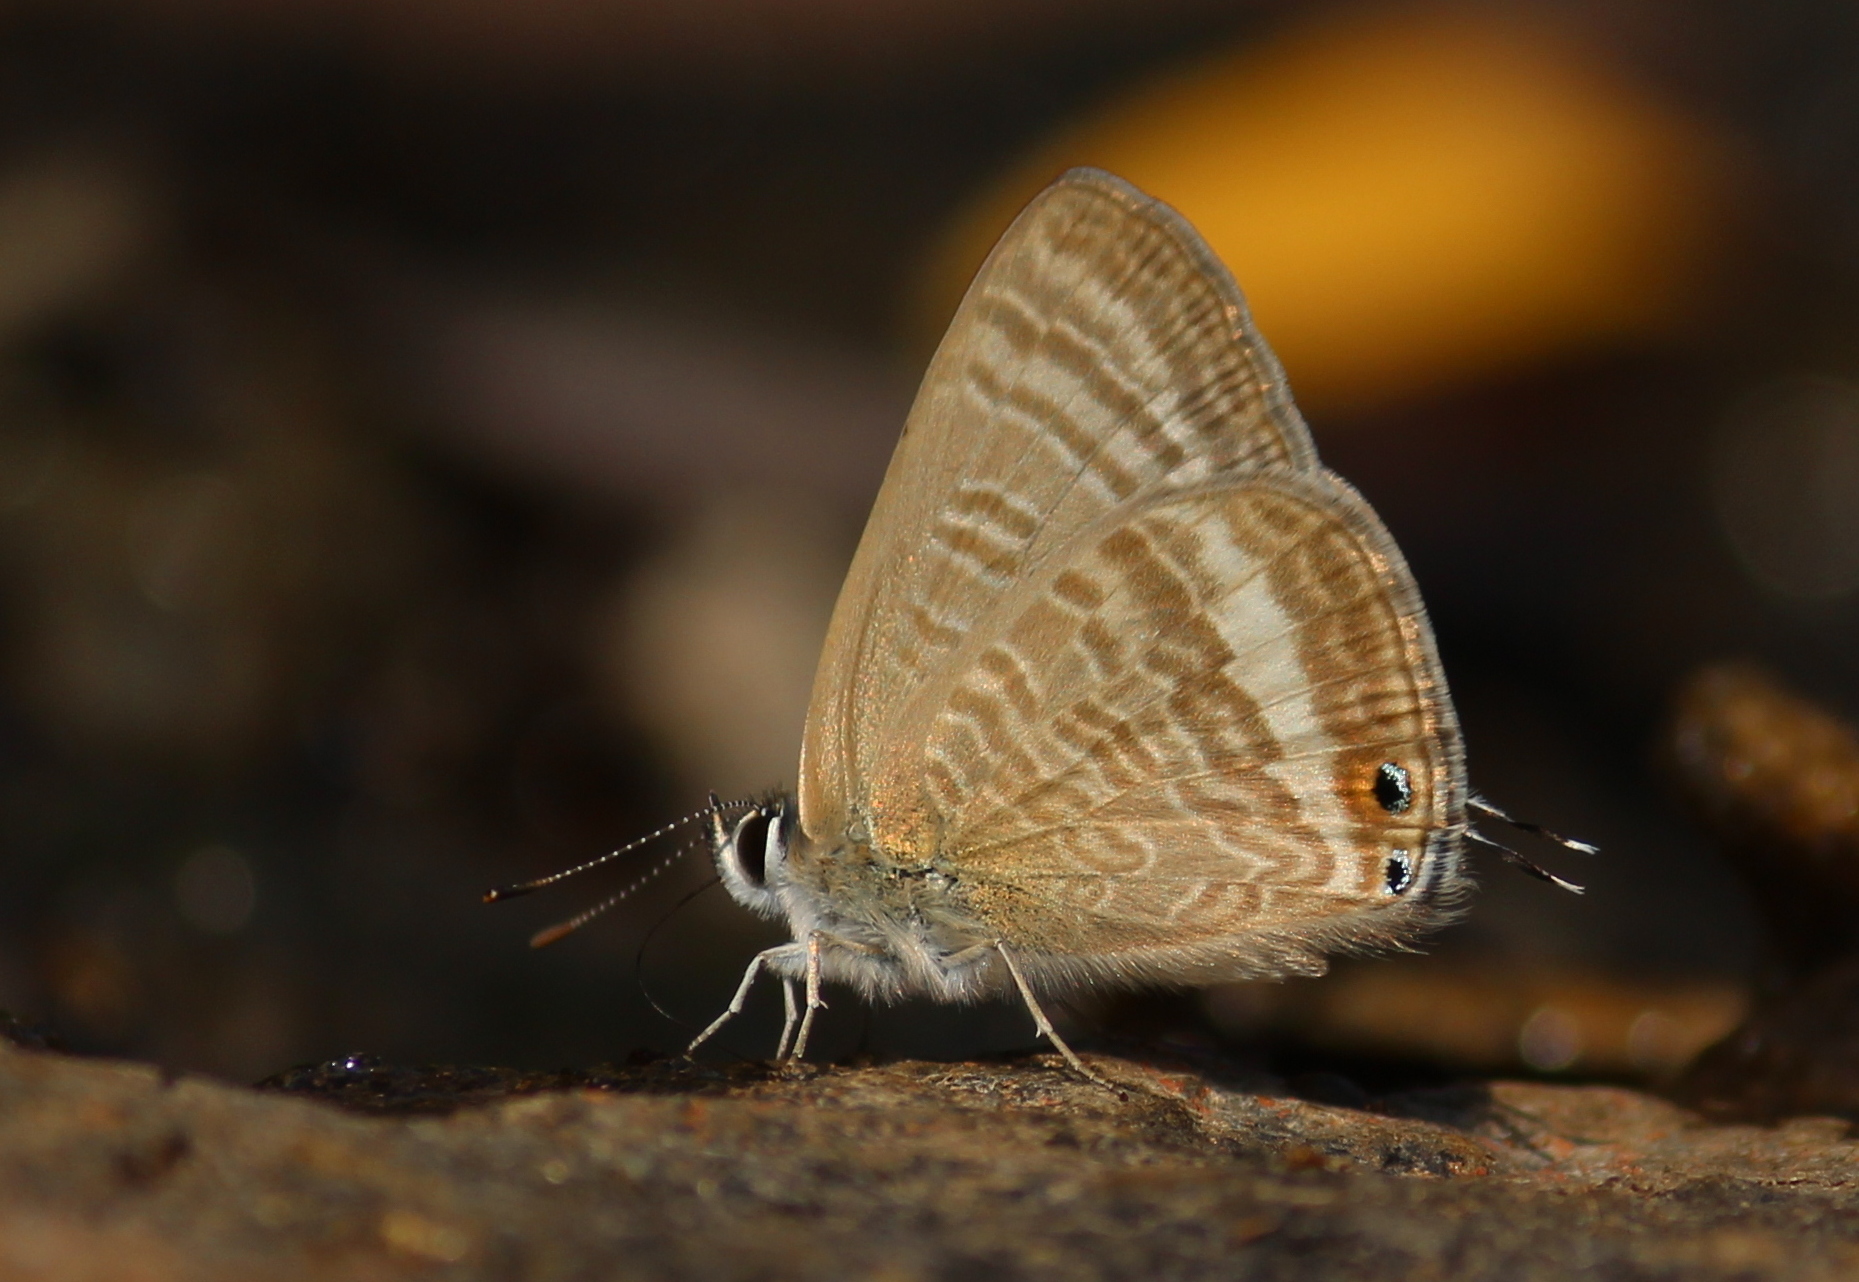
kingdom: Animalia
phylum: Arthropoda
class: Insecta
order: Lepidoptera
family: Lycaenidae
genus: Lampides
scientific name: Lampides boeticus
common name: Long-tailed blue
